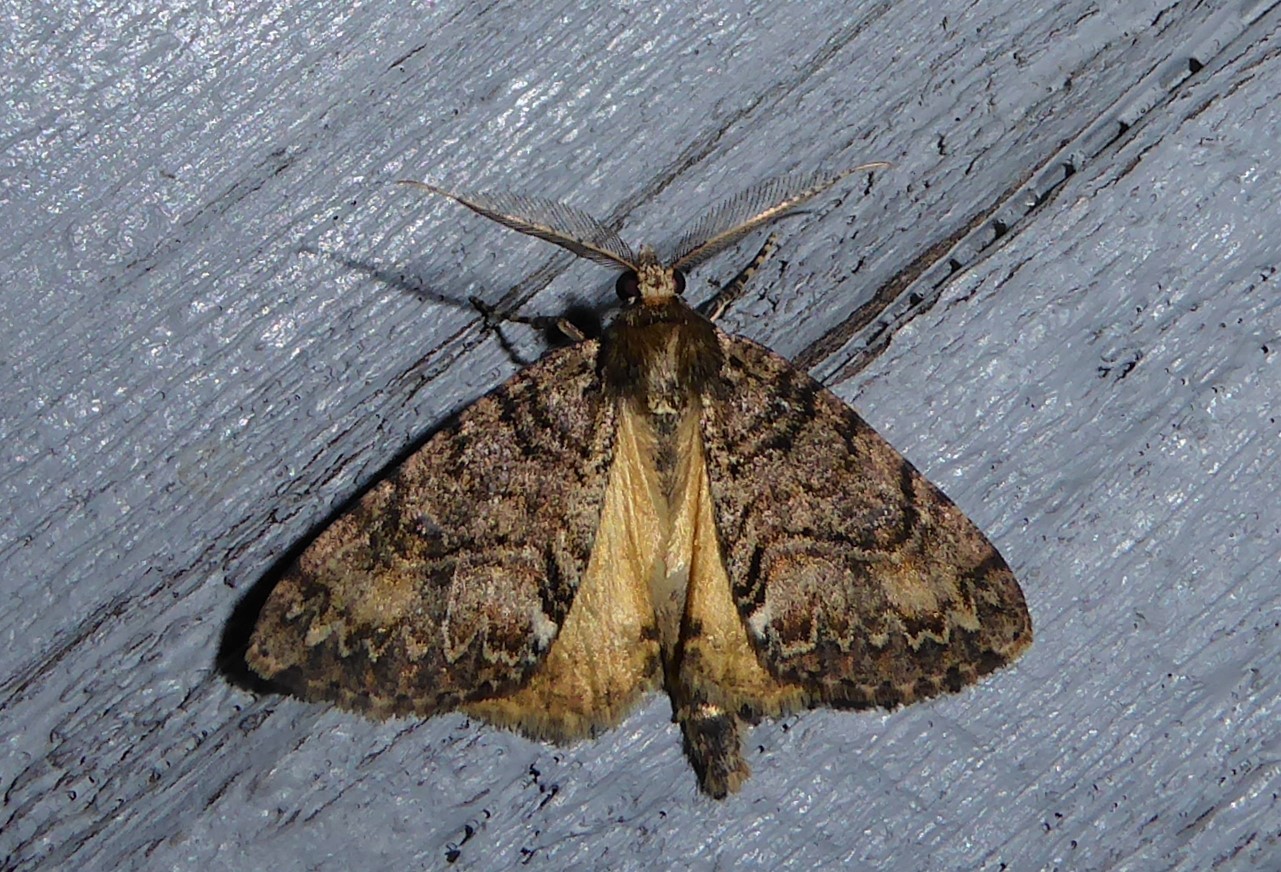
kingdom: Animalia
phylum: Arthropoda
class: Insecta
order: Lepidoptera
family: Geometridae
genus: Pseudocoremia
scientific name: Pseudocoremia suavis
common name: Common forest looper
